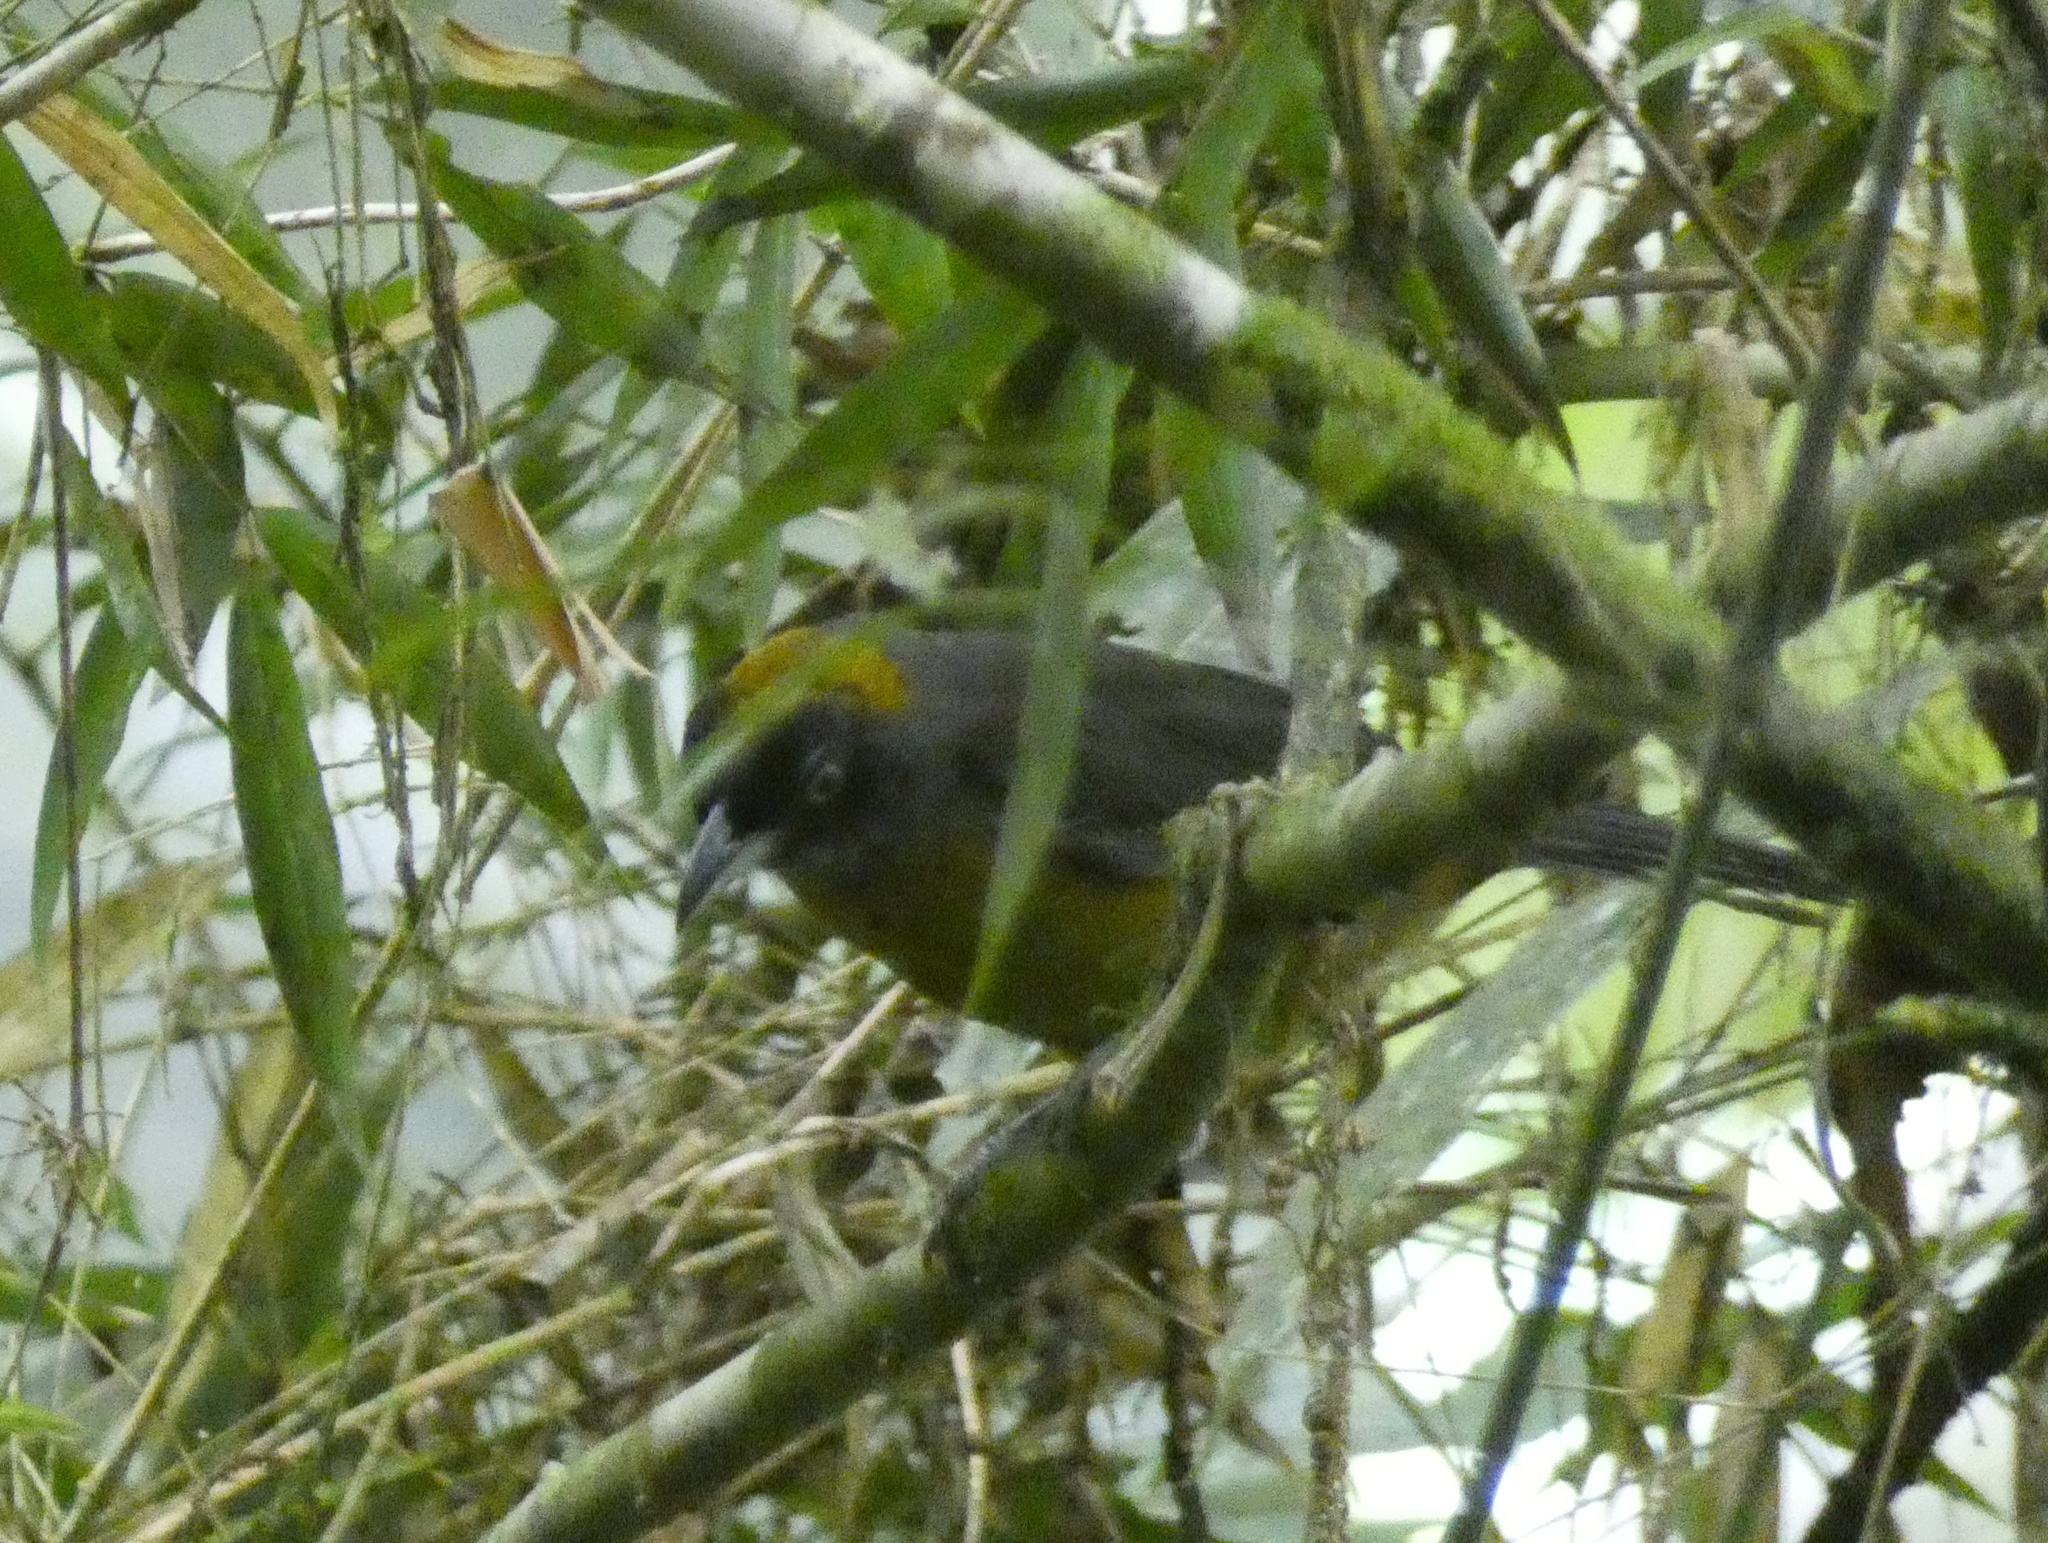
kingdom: Animalia
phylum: Chordata
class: Aves
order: Passeriformes
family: Mitrospingidae
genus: Mitrospingus
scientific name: Mitrospingus cassinii
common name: Dusky-faced tanager
